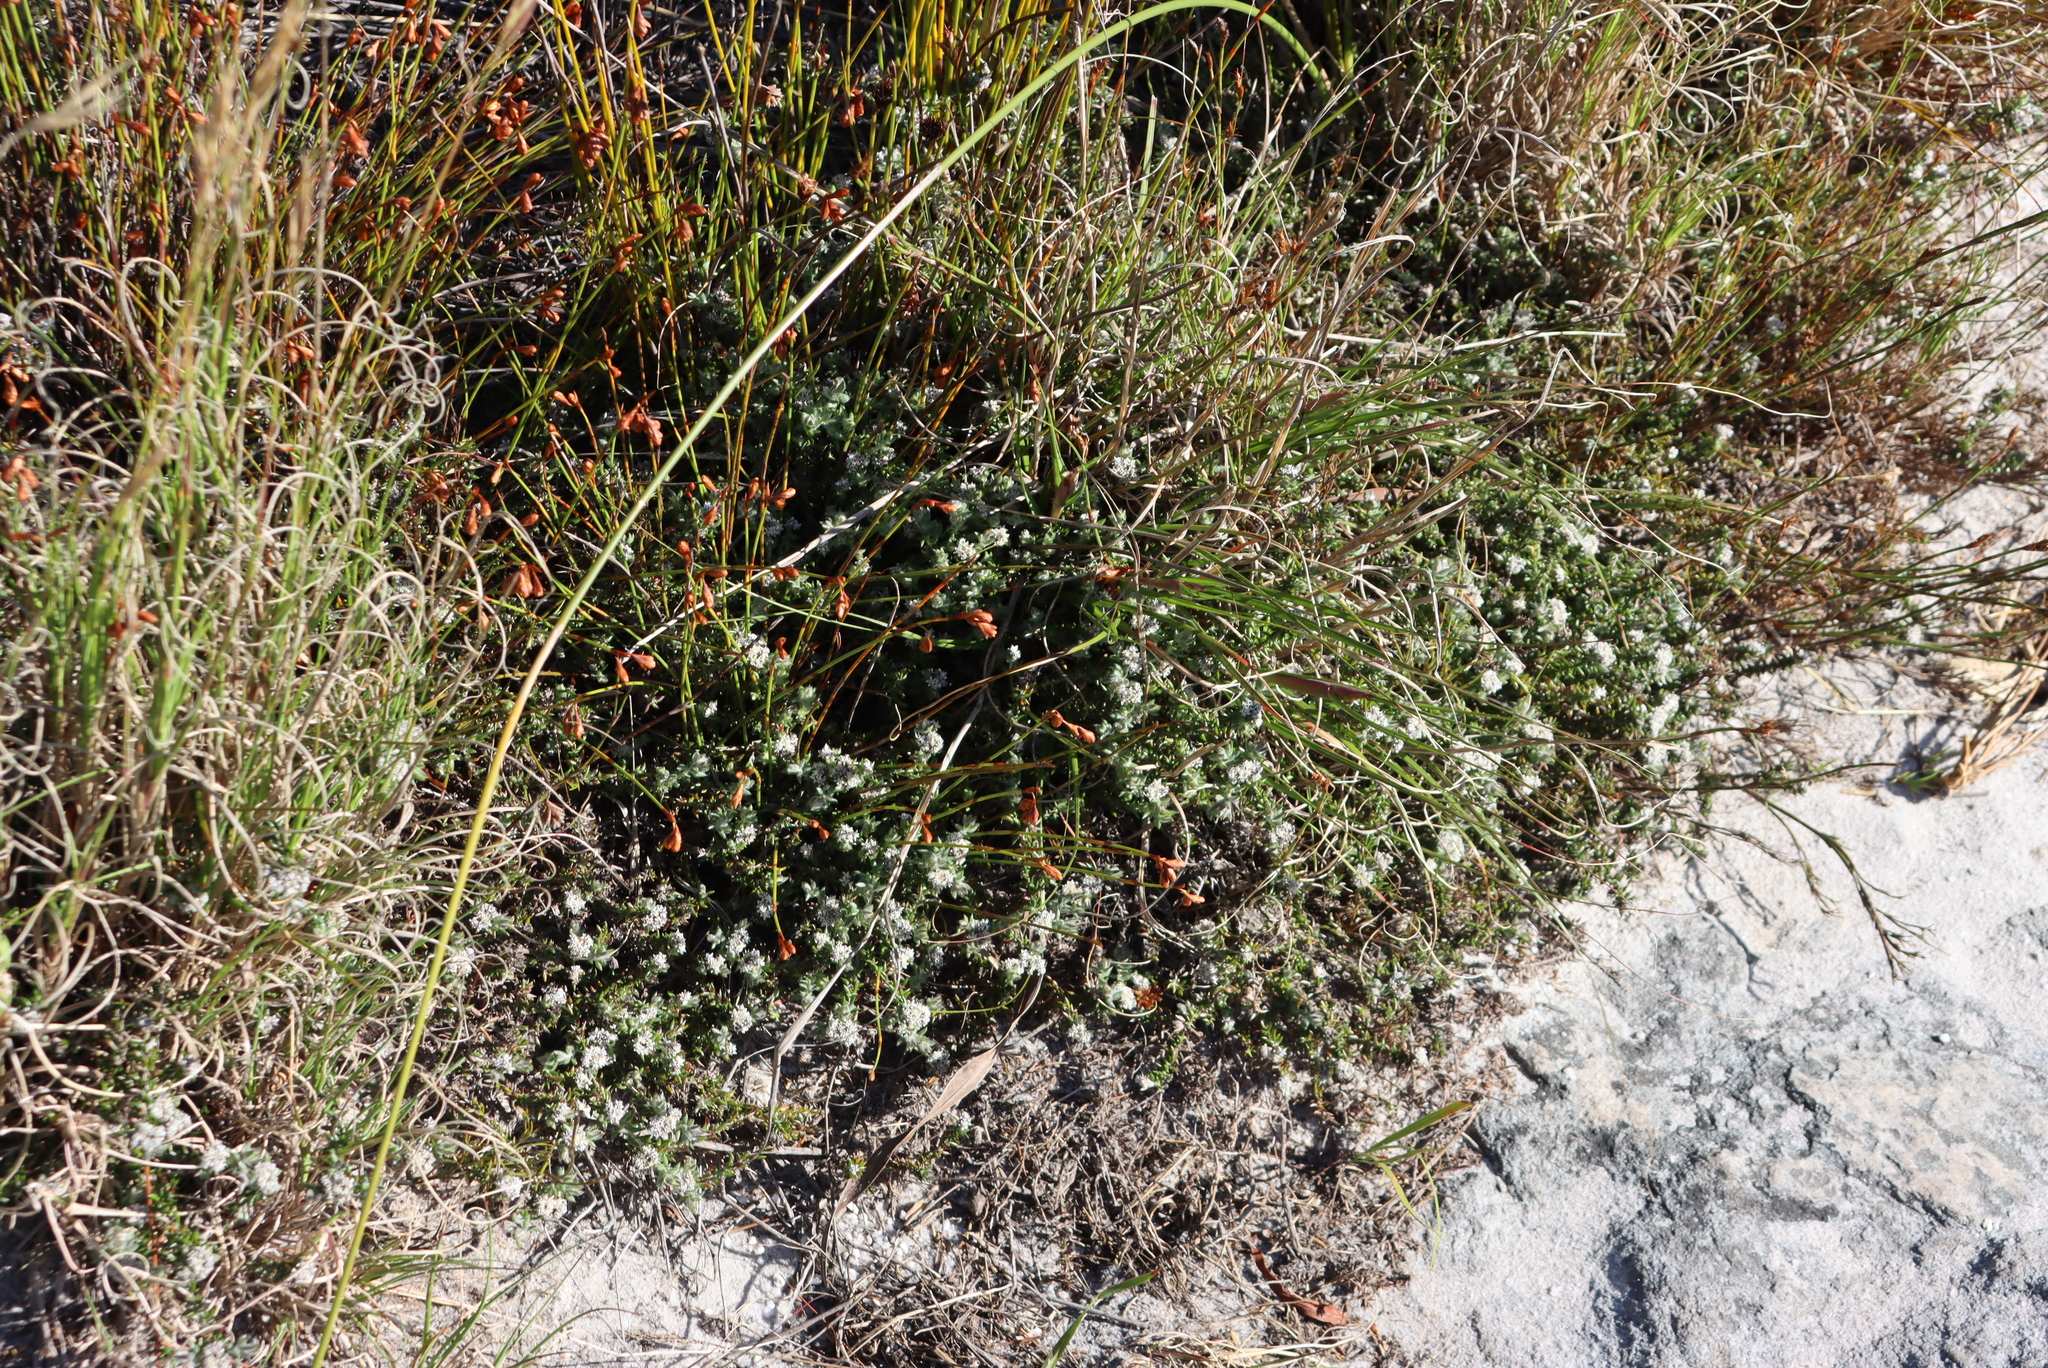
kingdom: Plantae
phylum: Tracheophyta
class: Magnoliopsida
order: Asterales
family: Asteraceae
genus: Metalasia
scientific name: Metalasia divergens
